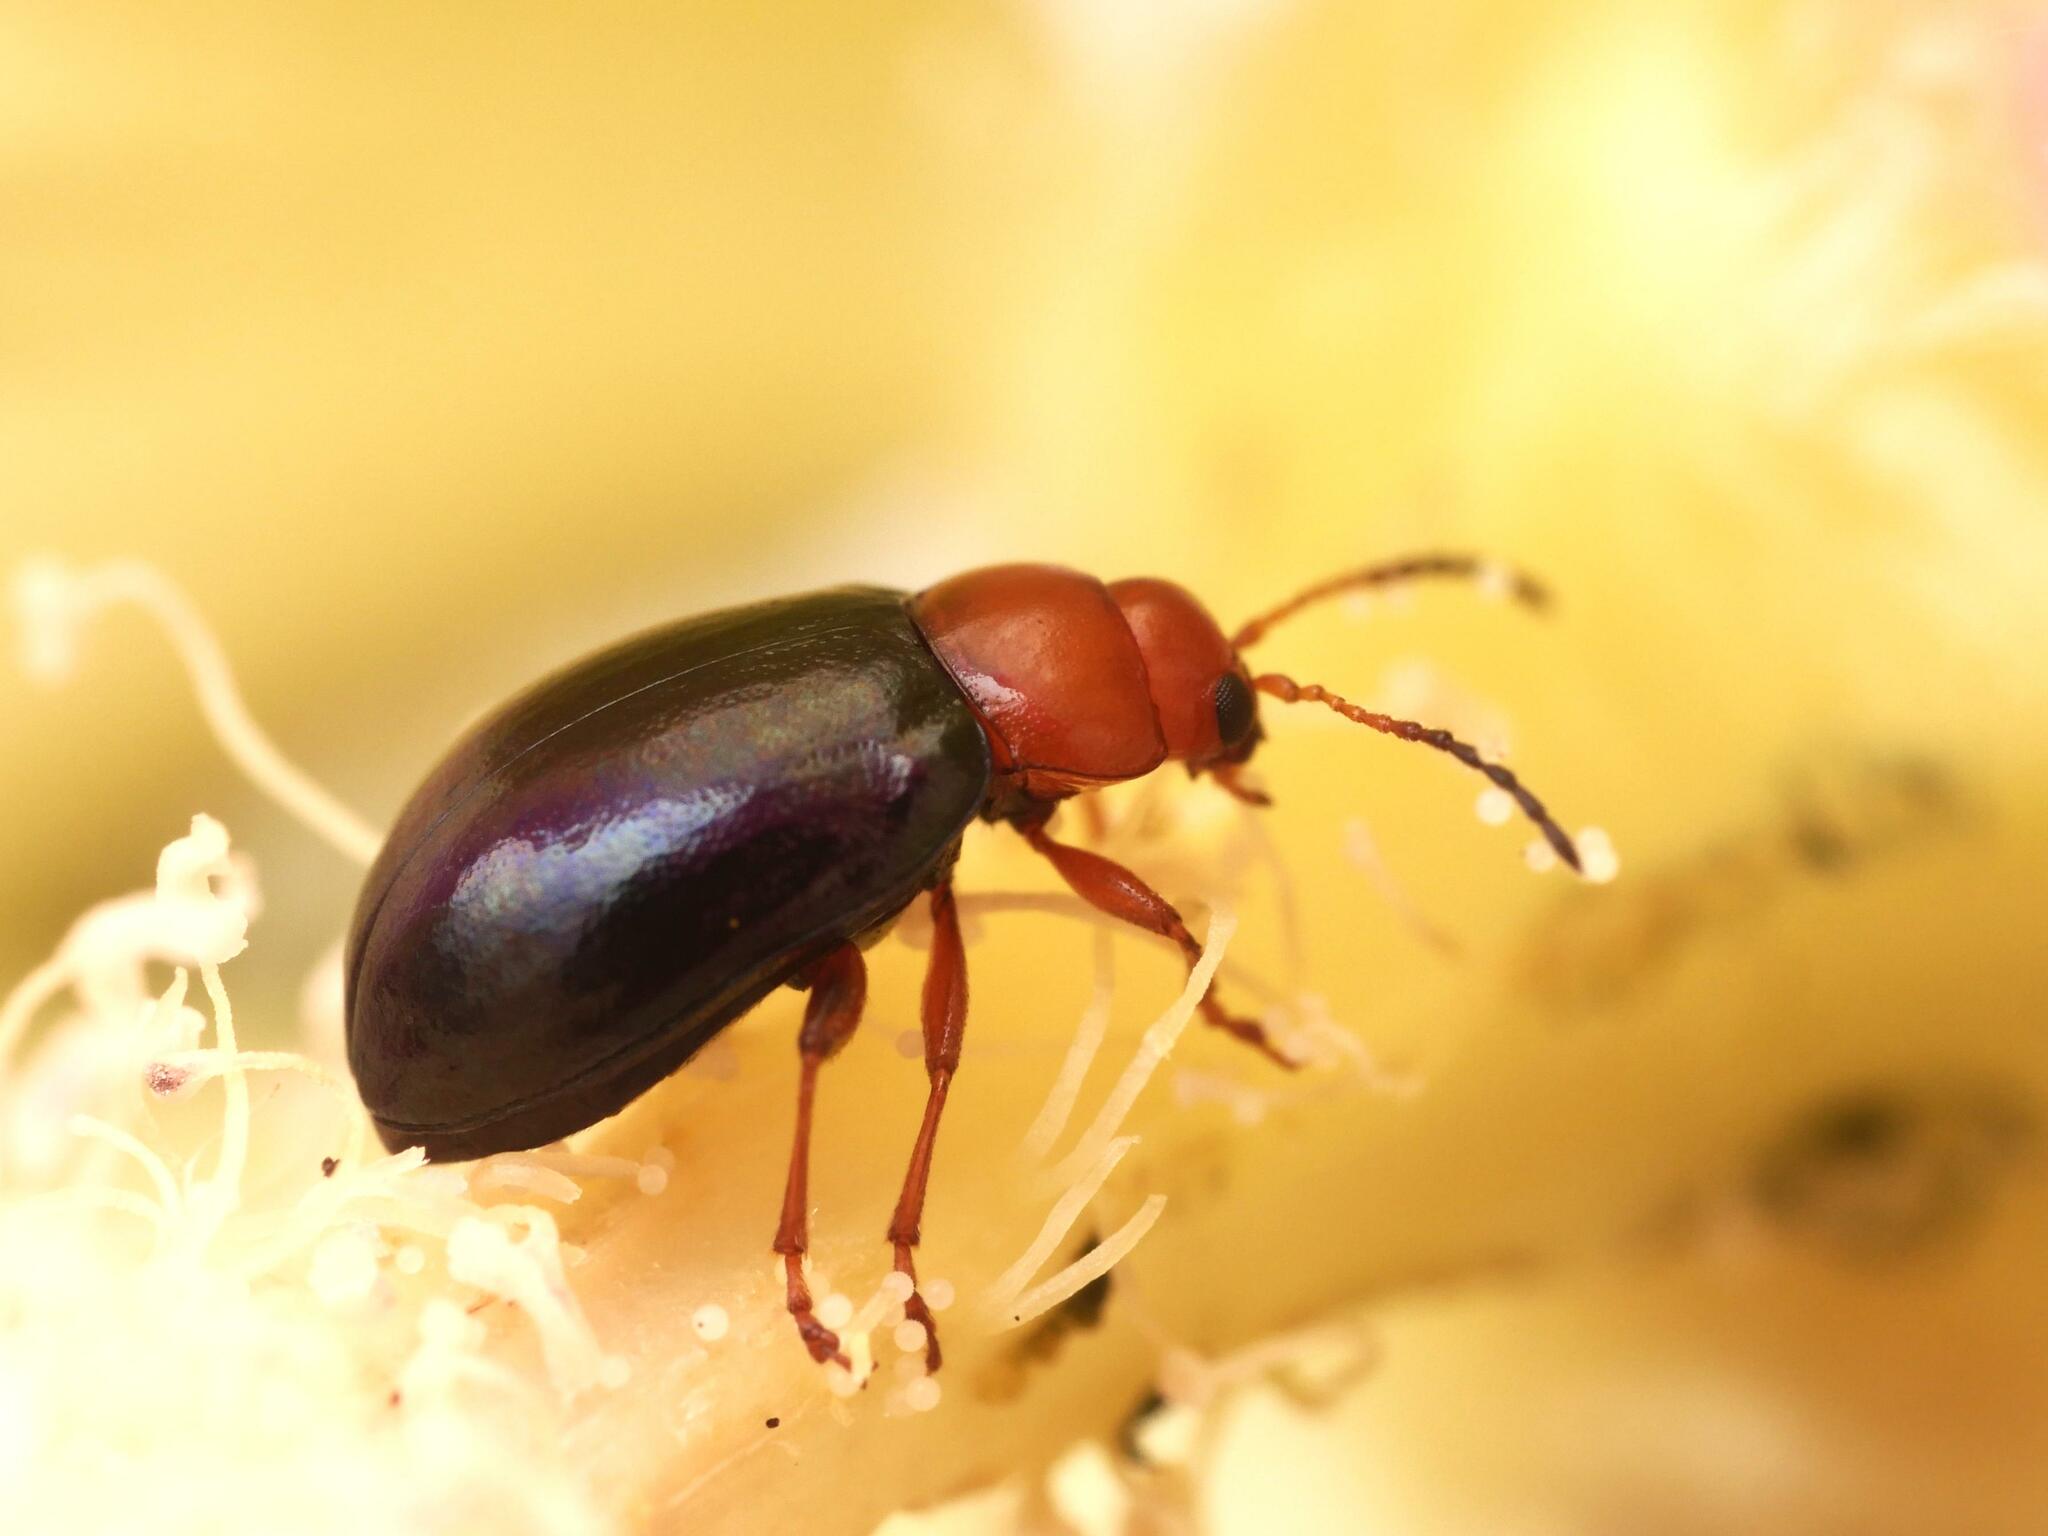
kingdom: Animalia
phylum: Arthropoda
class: Insecta
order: Coleoptera
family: Chrysomelidae
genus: Podagrica
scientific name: Podagrica fuscicornis
